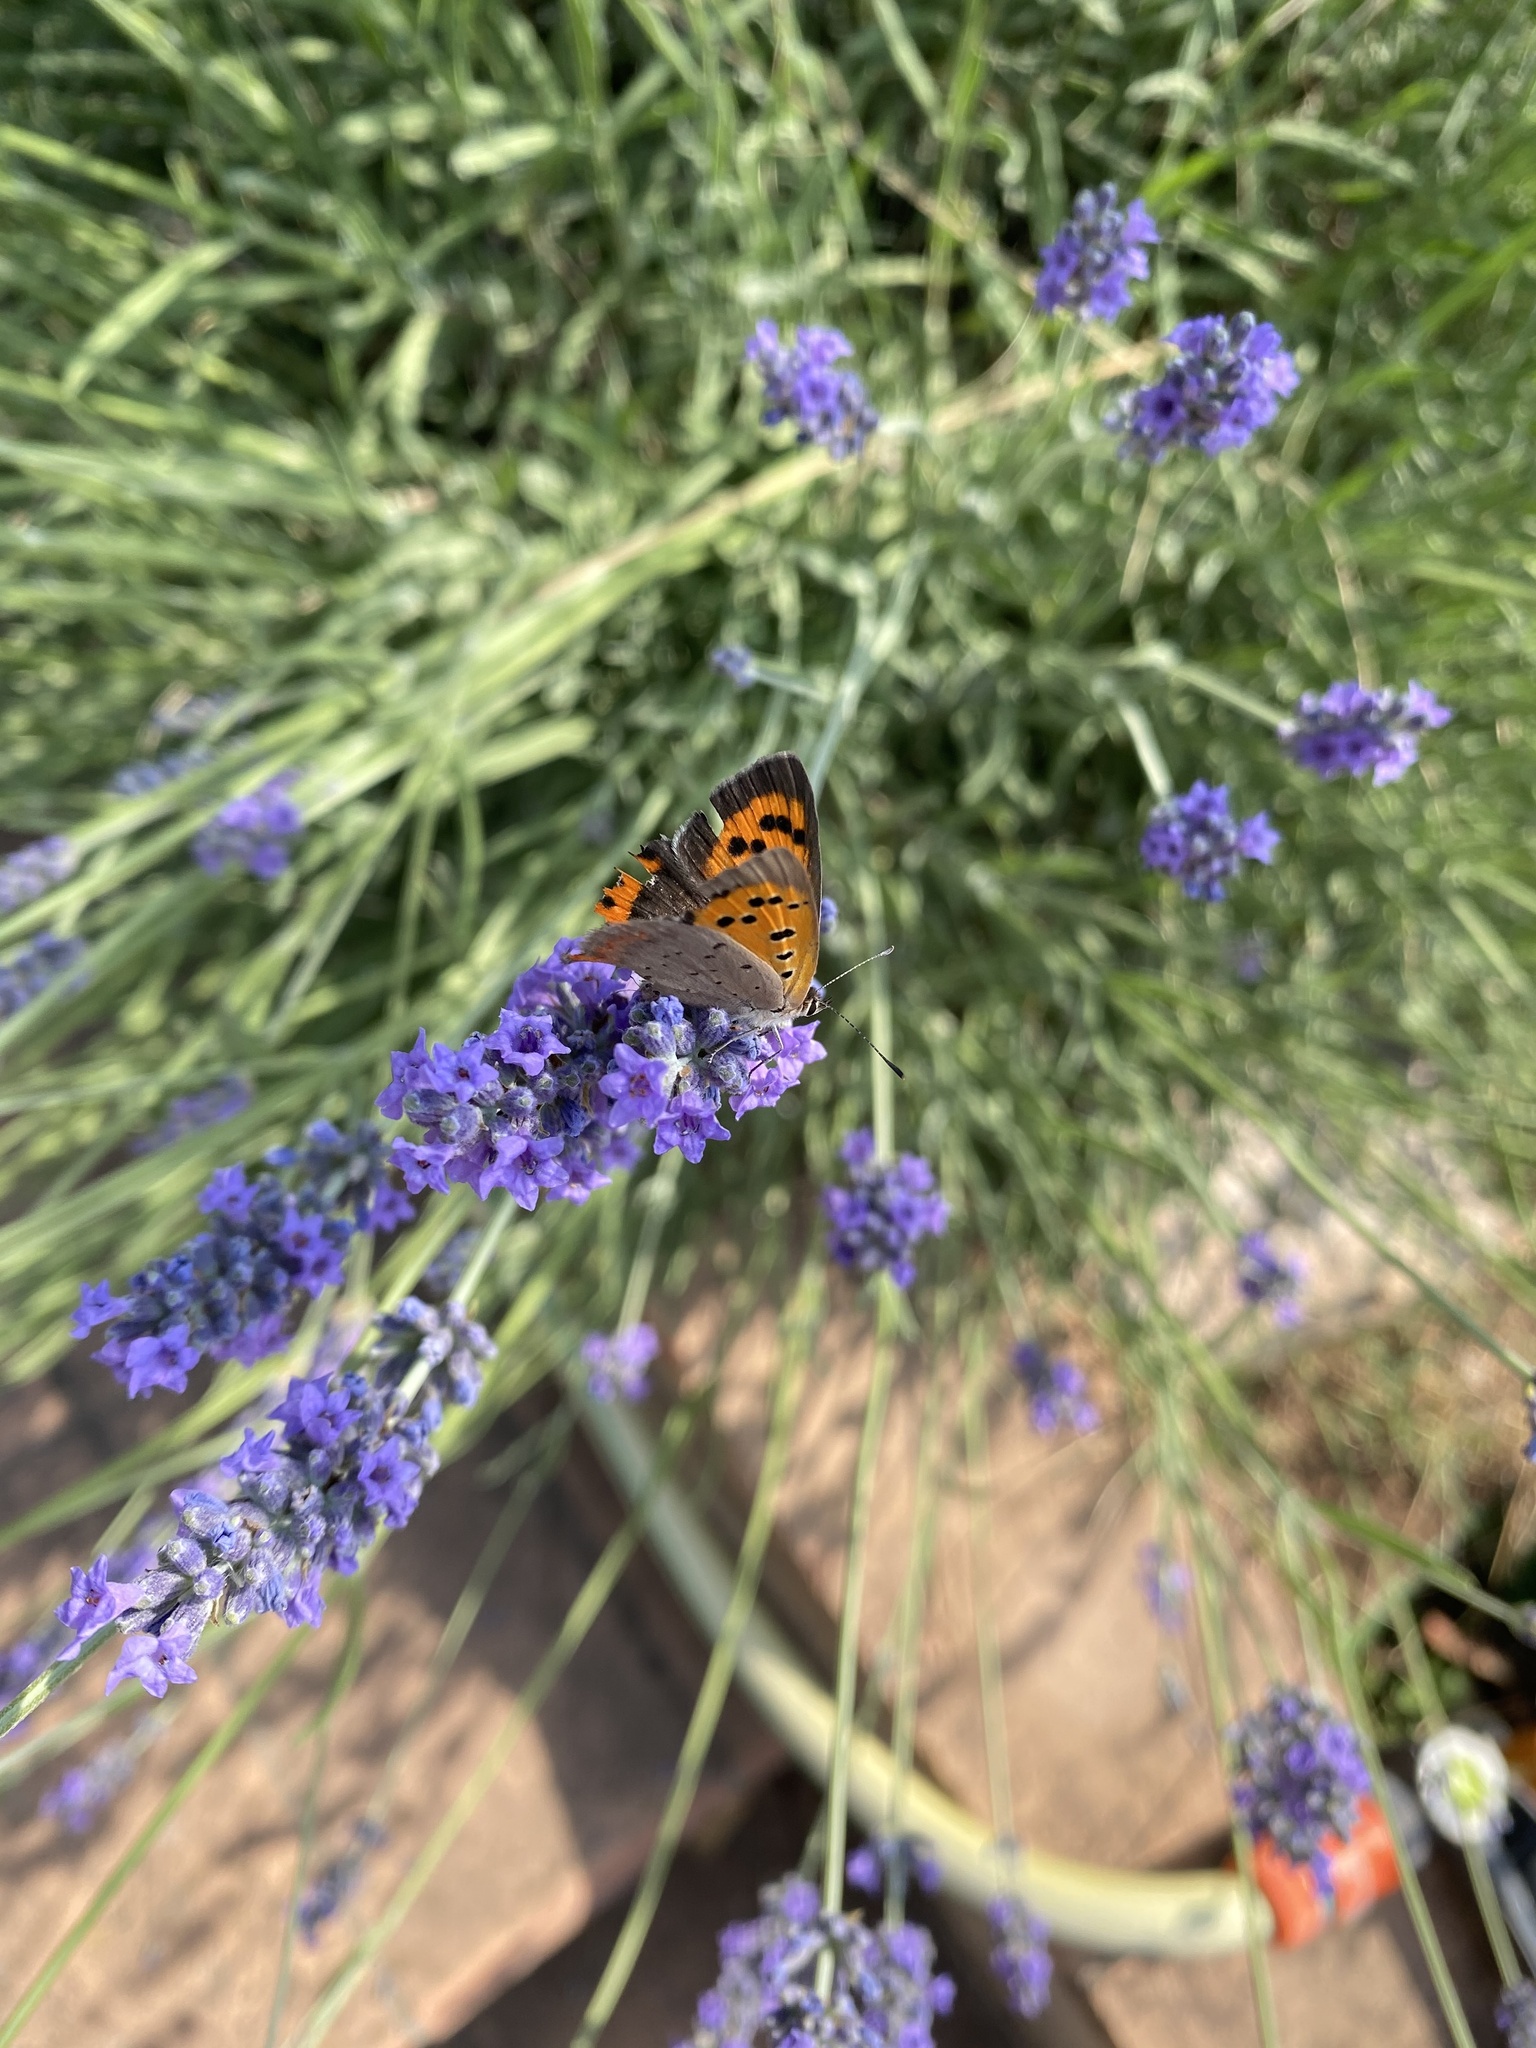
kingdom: Animalia
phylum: Arthropoda
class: Insecta
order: Lepidoptera
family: Lycaenidae
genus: Lycaena
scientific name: Lycaena phlaeas
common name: Small copper
